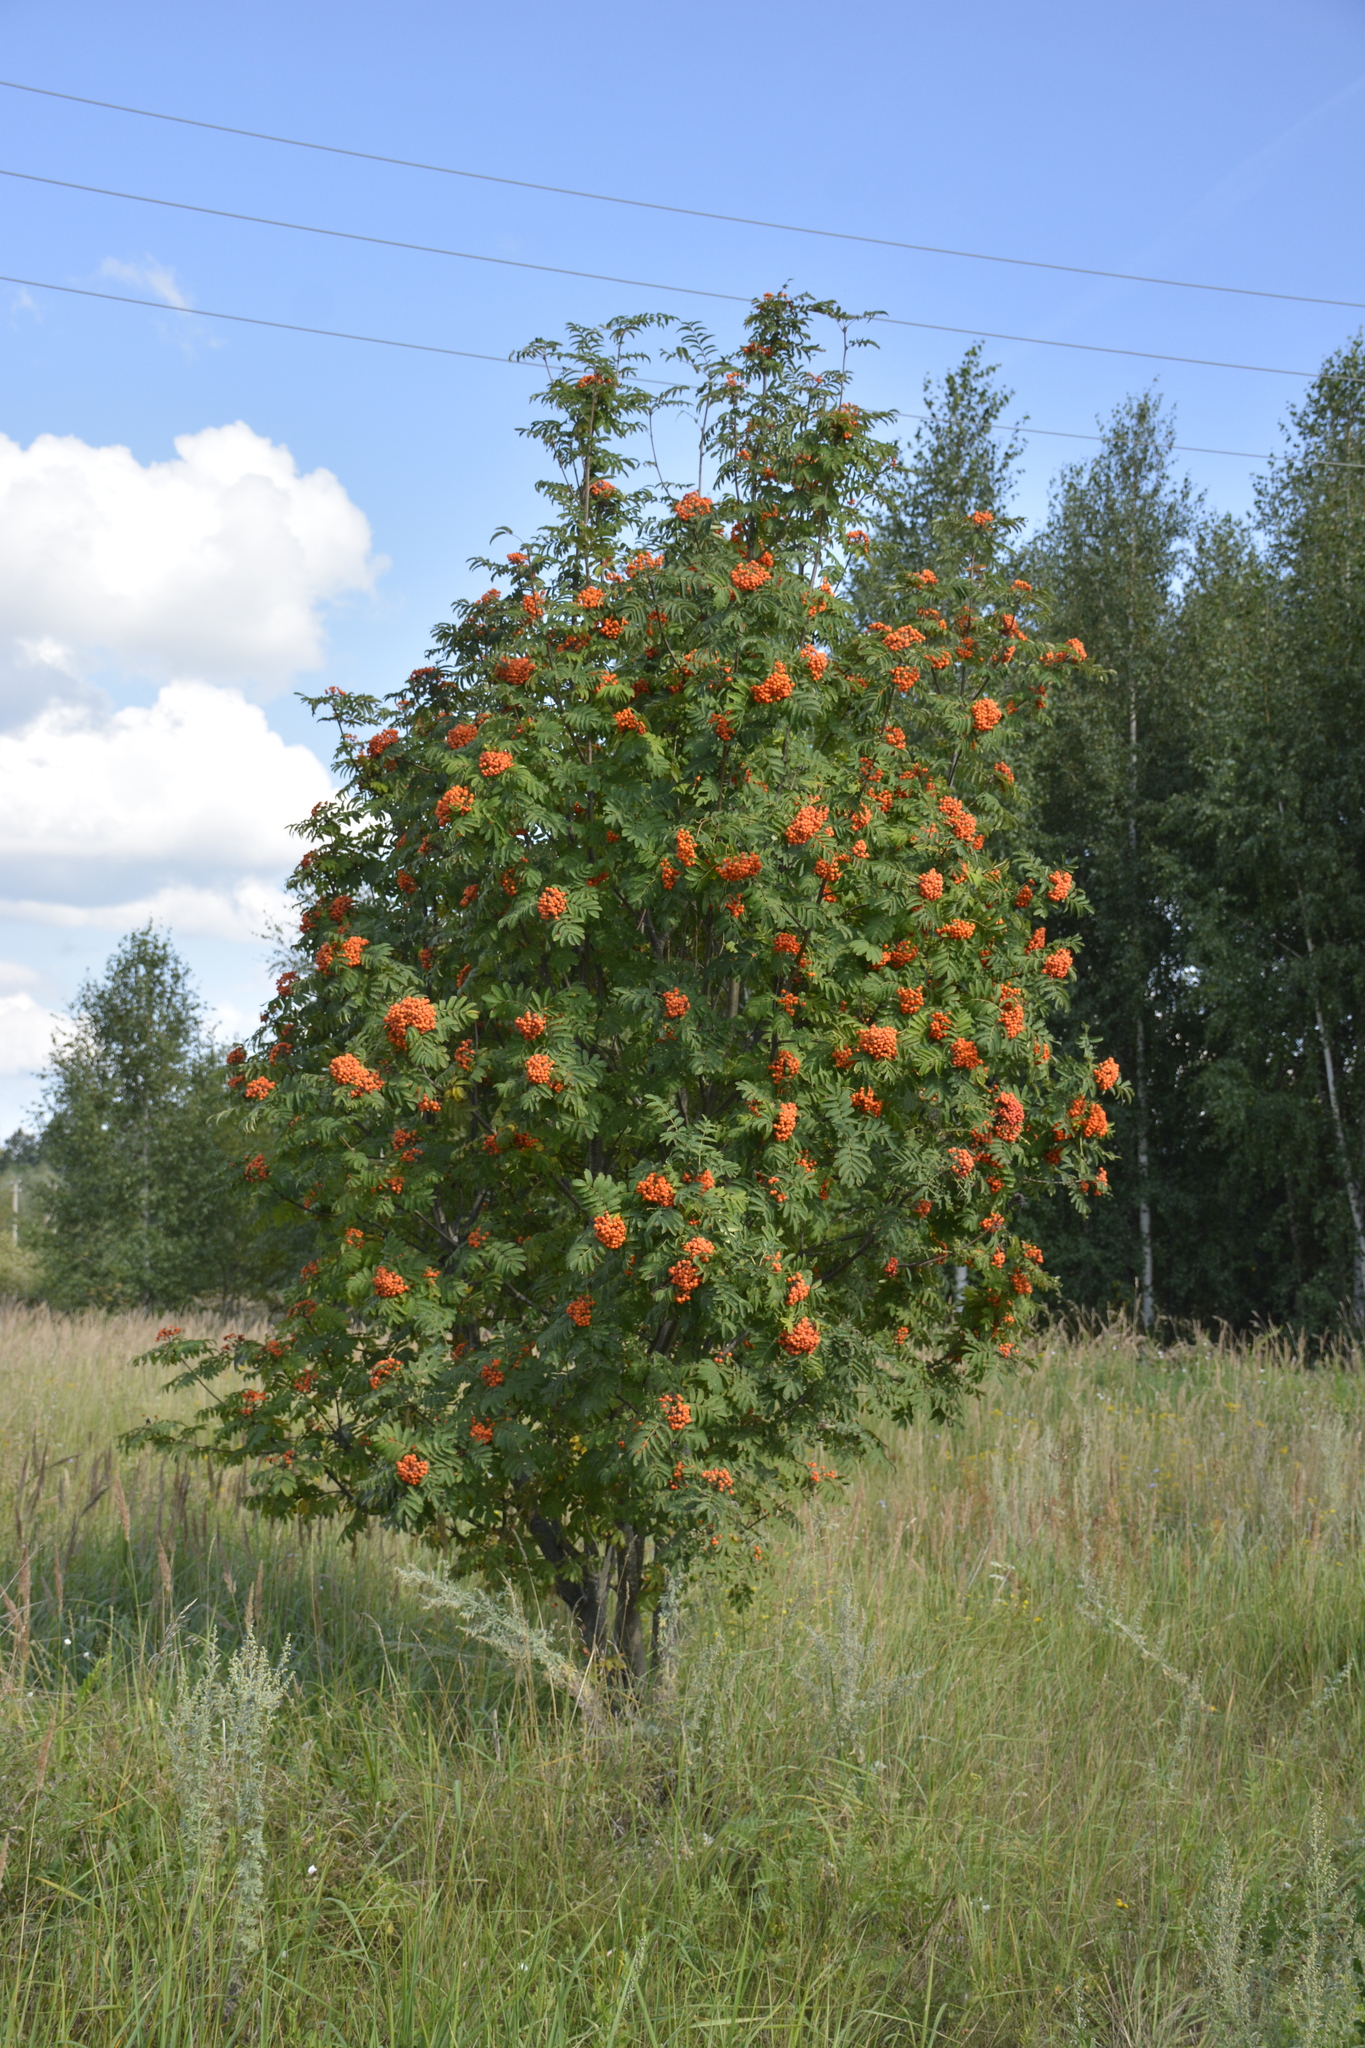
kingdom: Plantae
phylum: Tracheophyta
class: Magnoliopsida
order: Rosales
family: Rosaceae
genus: Sorbus
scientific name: Sorbus aucuparia
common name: Rowan
